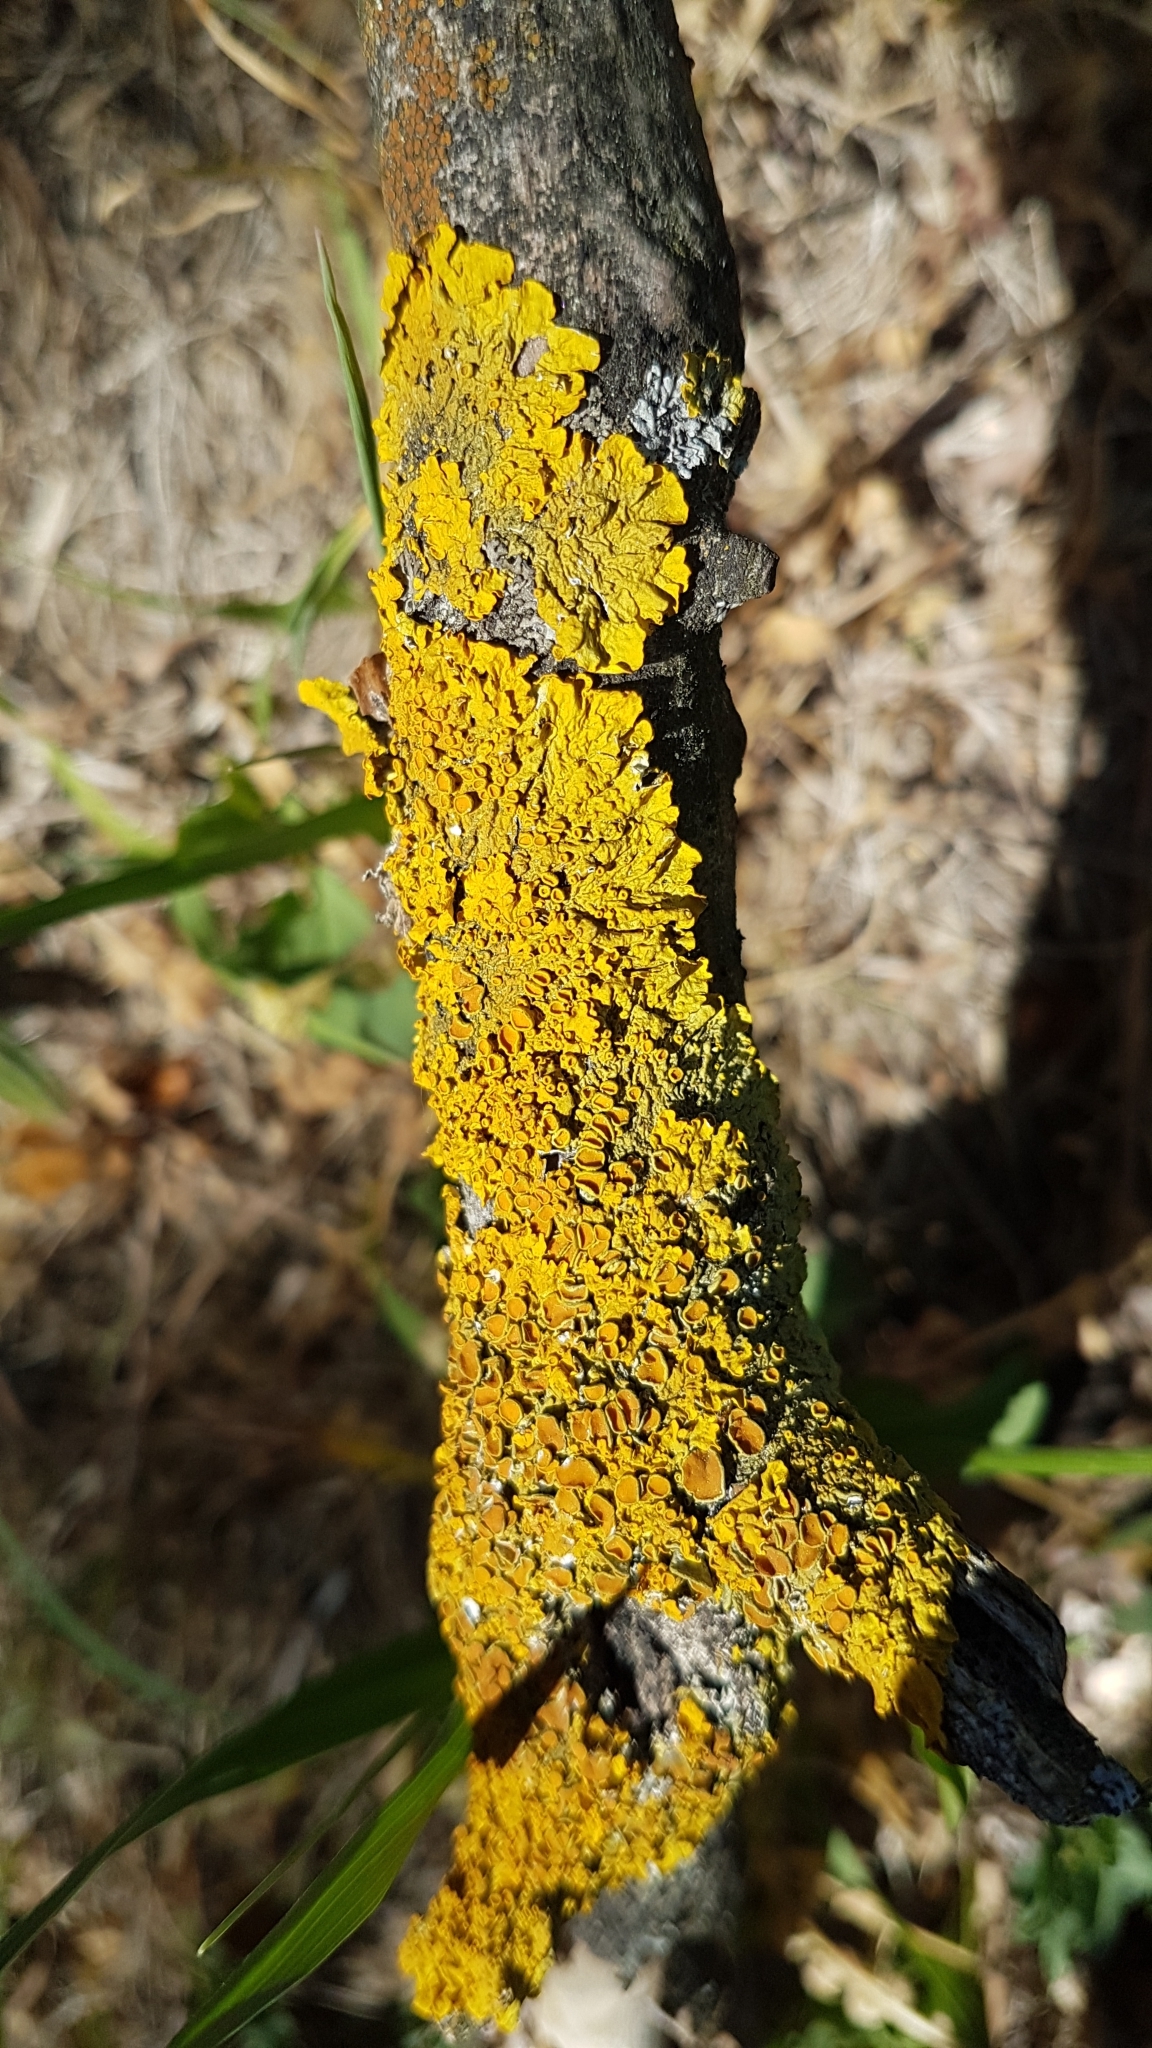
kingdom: Fungi
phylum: Ascomycota
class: Lecanoromycetes
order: Teloschistales
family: Teloschistaceae
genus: Xanthoria
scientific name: Xanthoria parietina
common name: Common orange lichen
